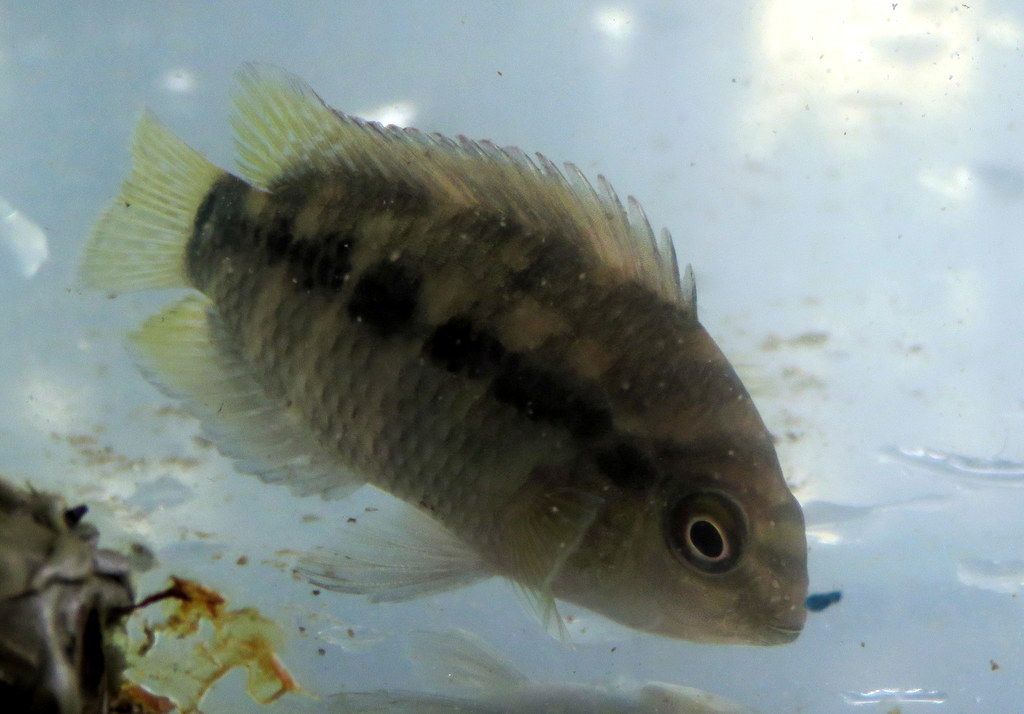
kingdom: Animalia
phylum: Chordata
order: Perciformes
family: Cichlidae
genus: Australoheros
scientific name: Australoheros facetus
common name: Chameleon cichlid
